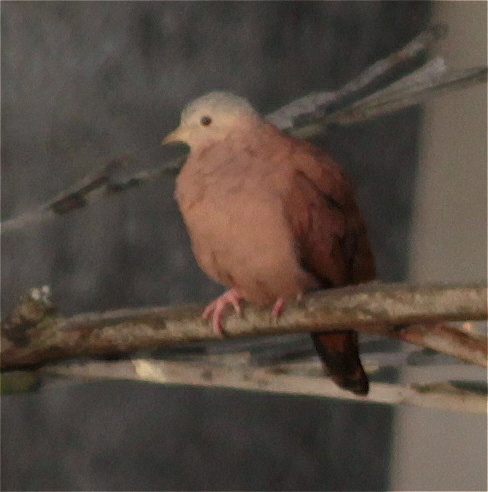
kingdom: Animalia
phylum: Chordata
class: Aves
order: Columbiformes
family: Columbidae
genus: Columbina
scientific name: Columbina talpacoti
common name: Ruddy ground dove
